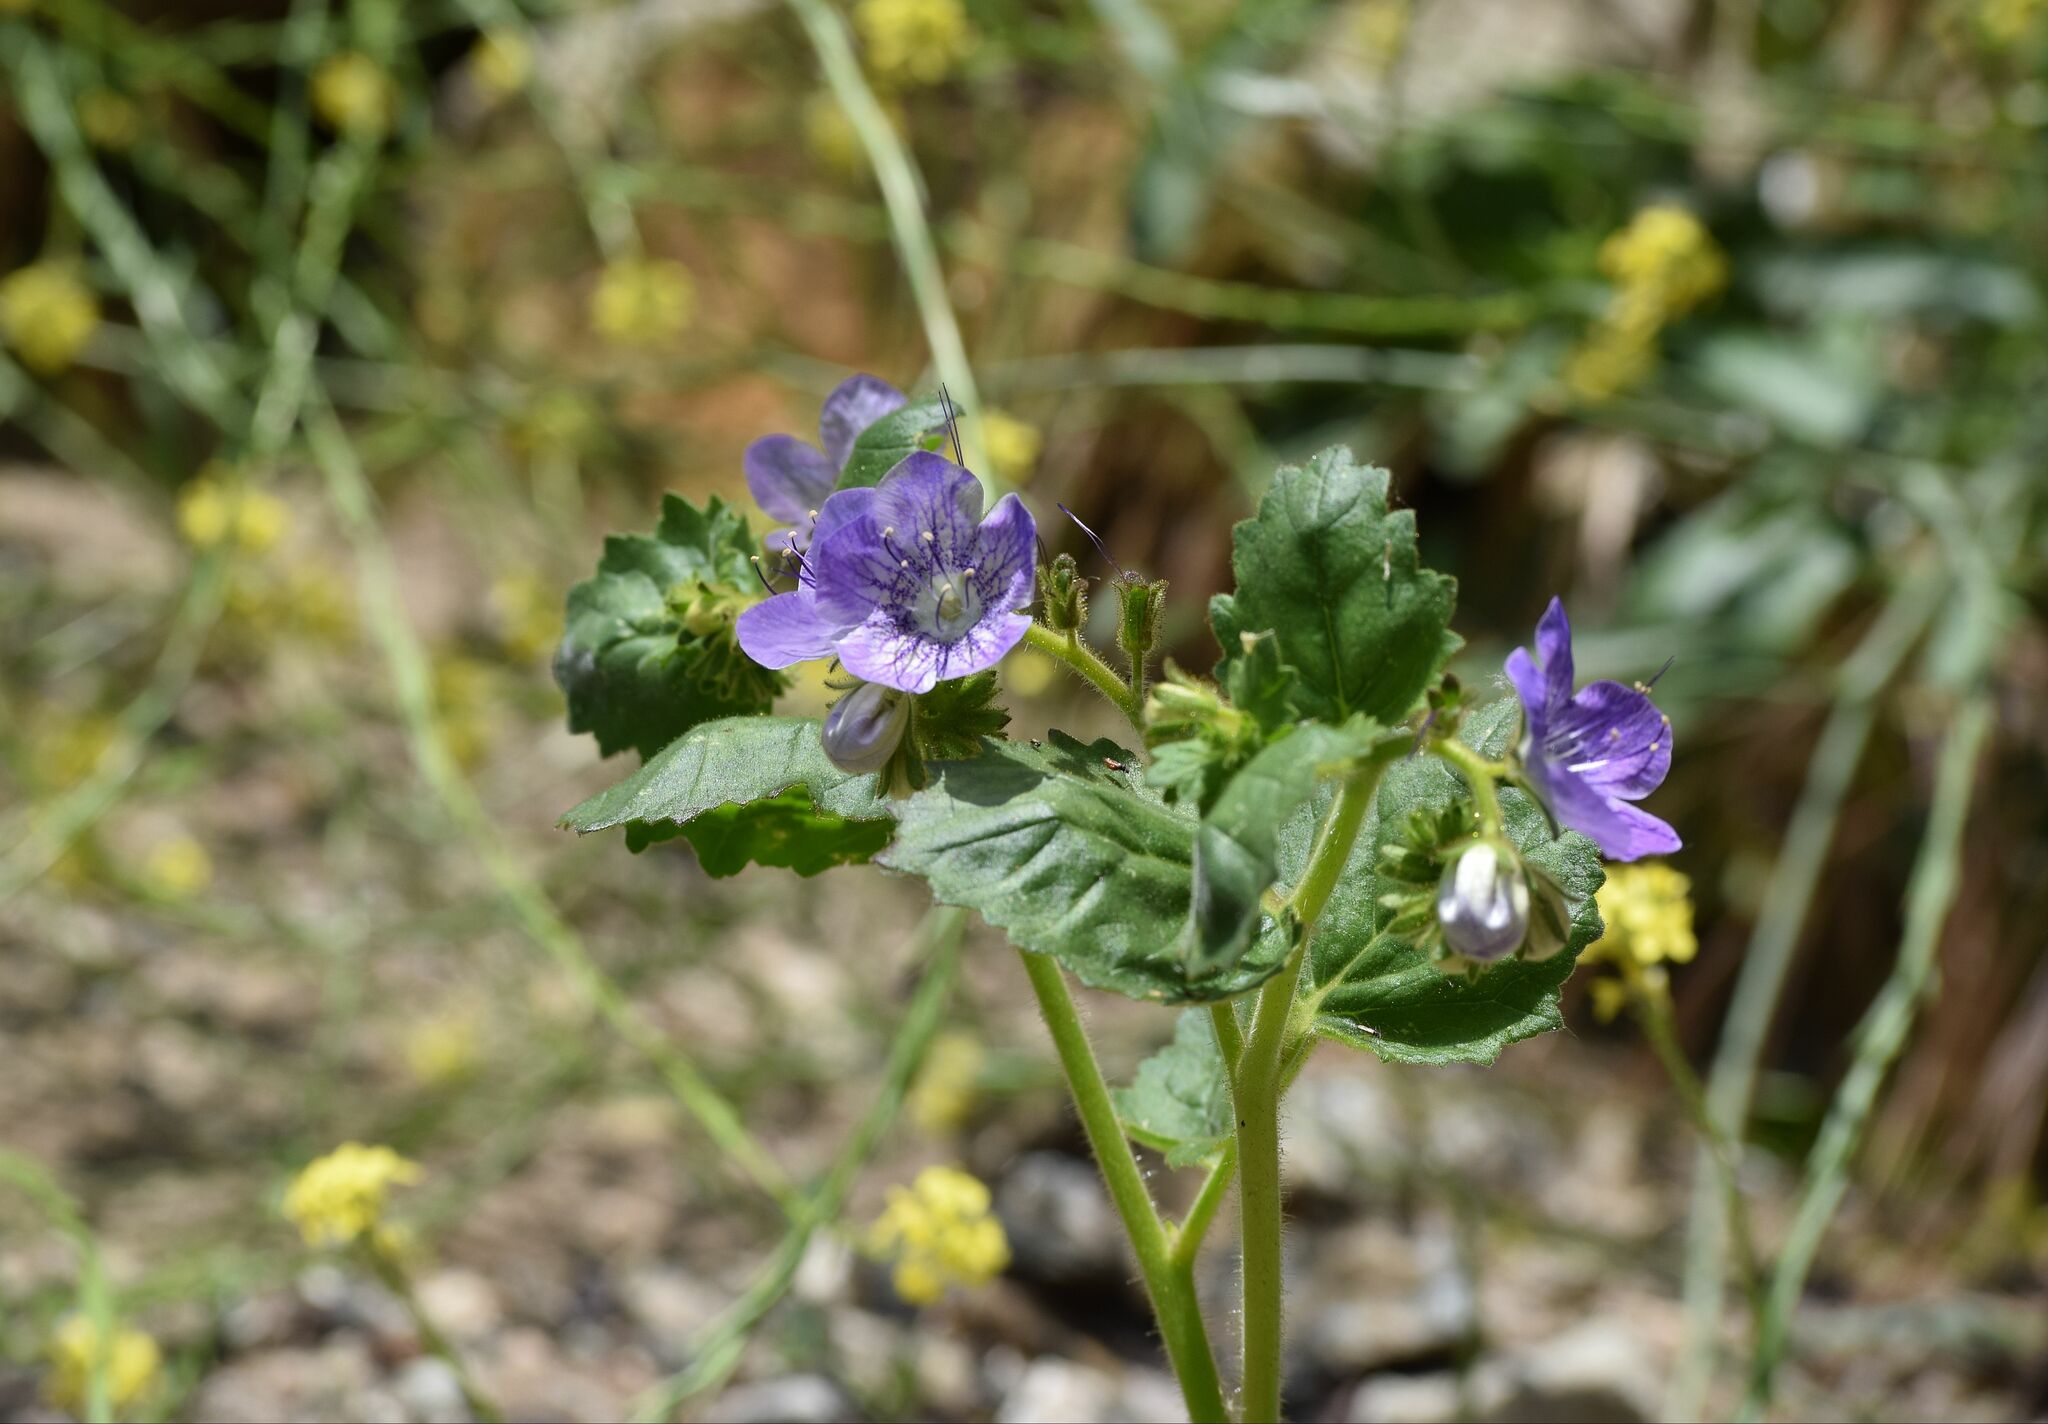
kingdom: Plantae
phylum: Tracheophyta
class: Magnoliopsida
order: Boraginales
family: Hydrophyllaceae
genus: Phacelia
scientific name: Phacelia grandiflora
